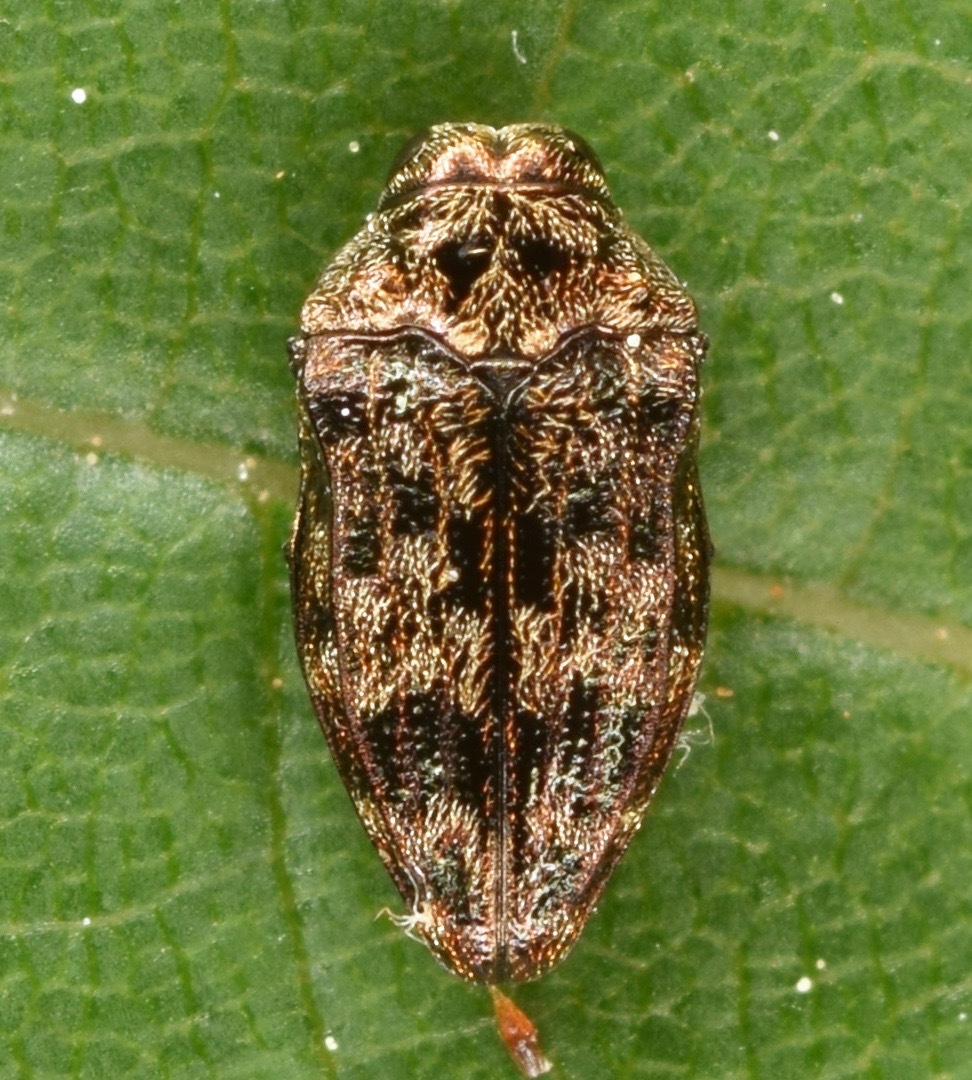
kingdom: Animalia
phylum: Arthropoda
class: Insecta
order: Coleoptera
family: Buprestidae
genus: Brachys
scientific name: Brachys aeruginosus
